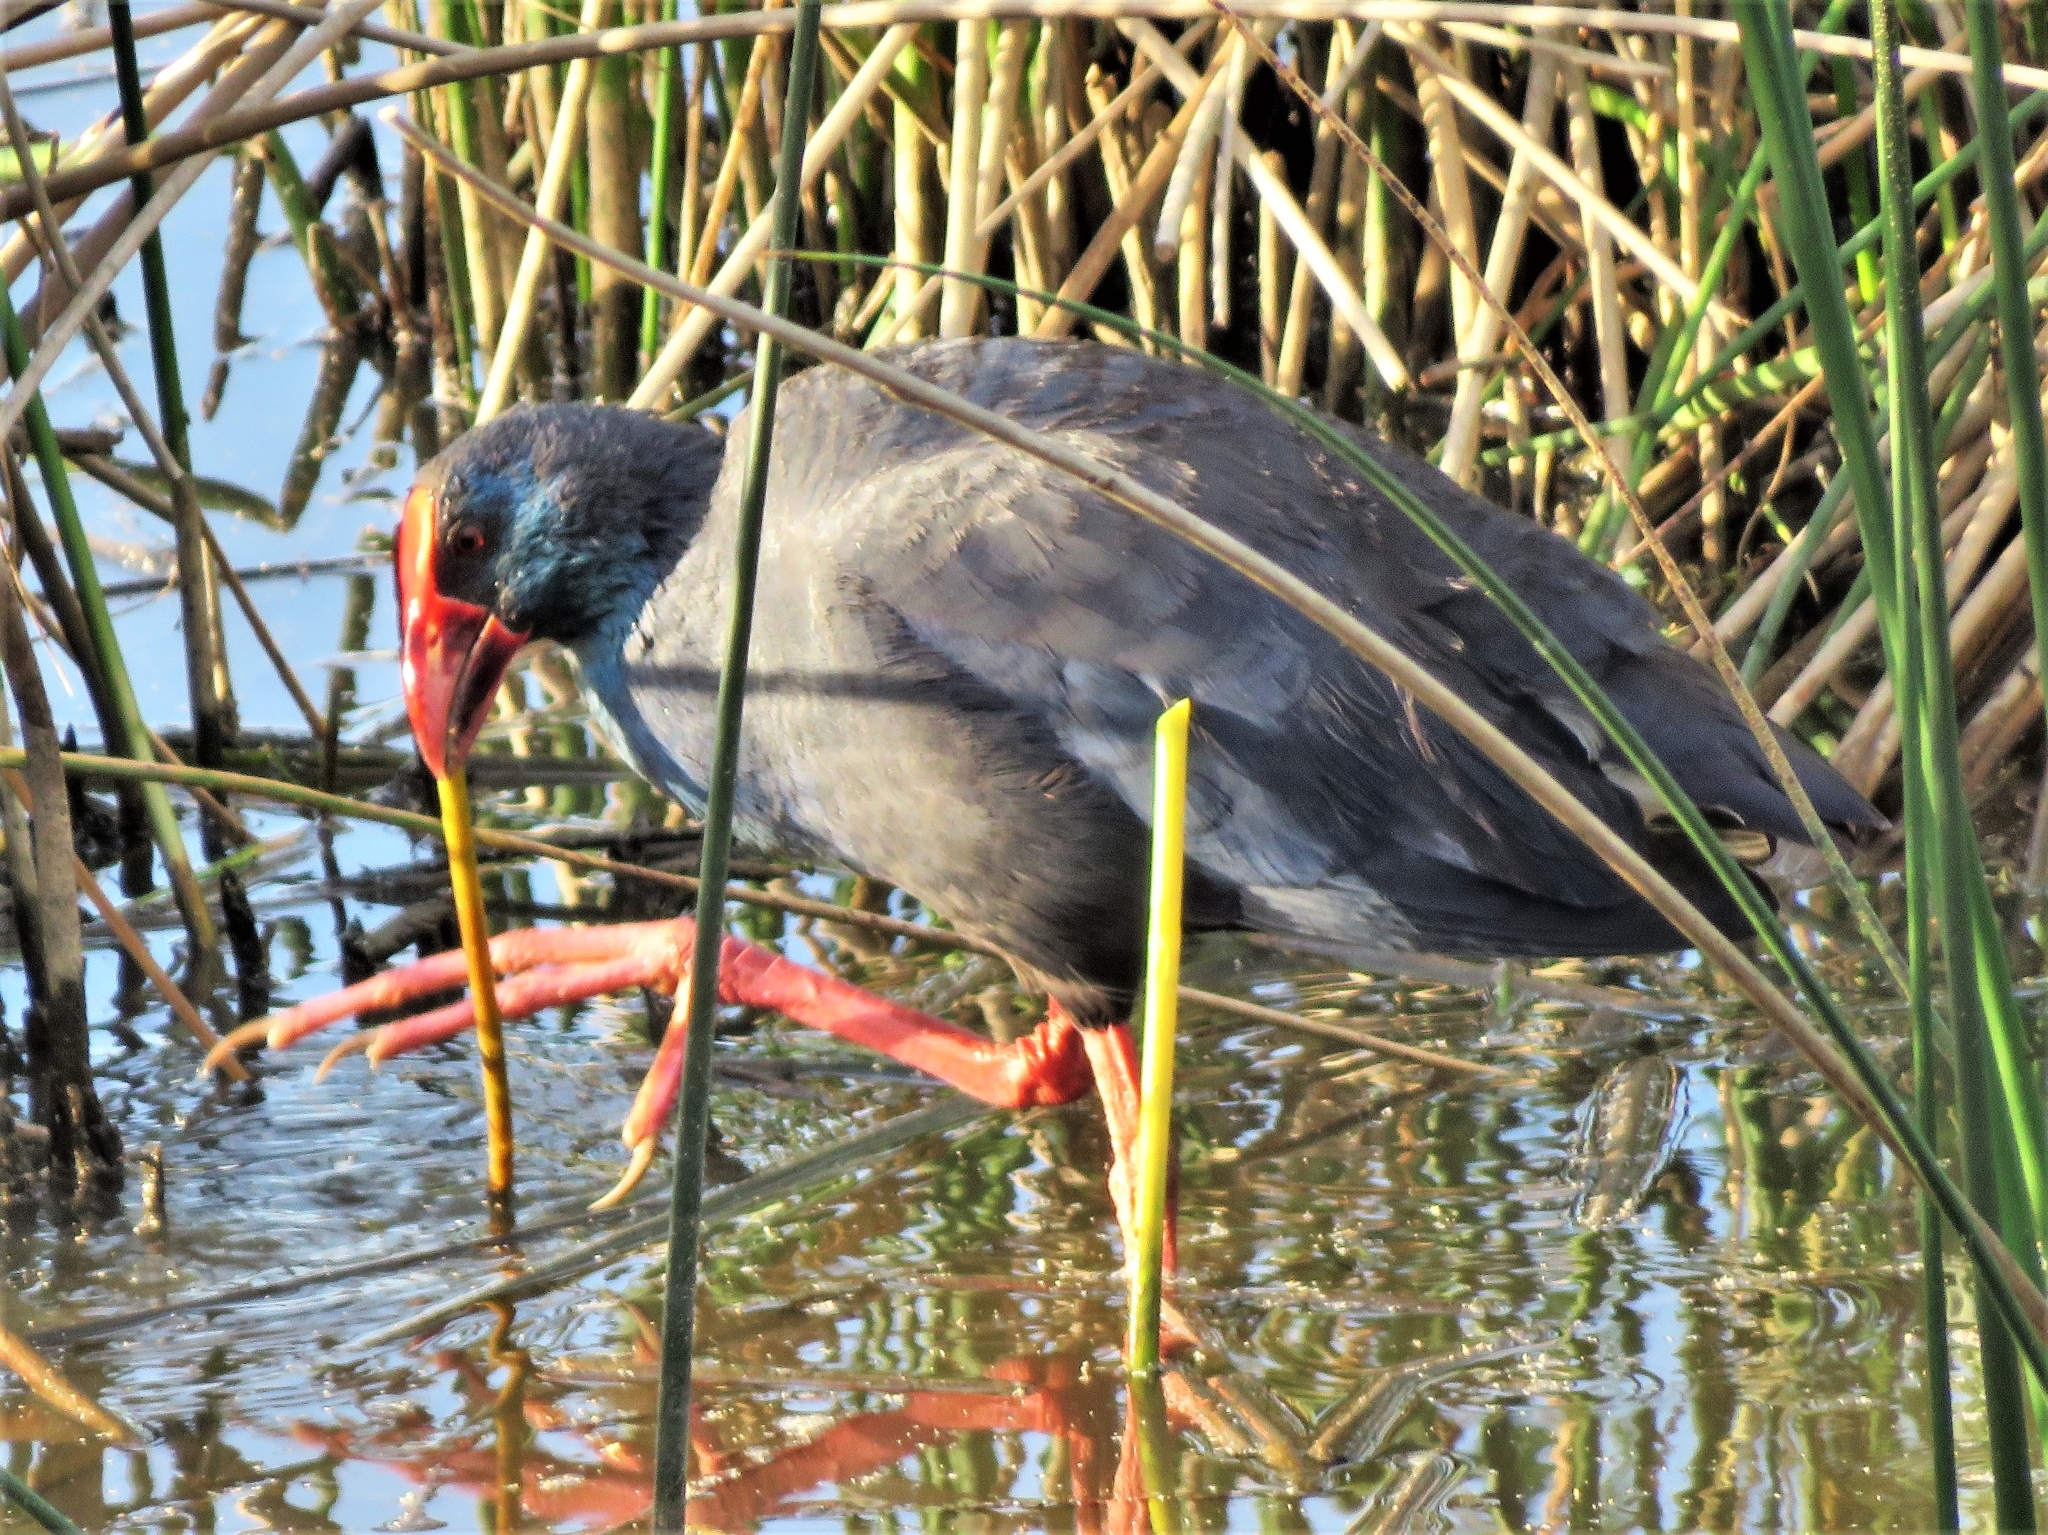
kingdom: Animalia
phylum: Chordata
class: Aves
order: Gruiformes
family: Rallidae
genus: Porphyrio
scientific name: Porphyrio porphyrio
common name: Purple swamphen
